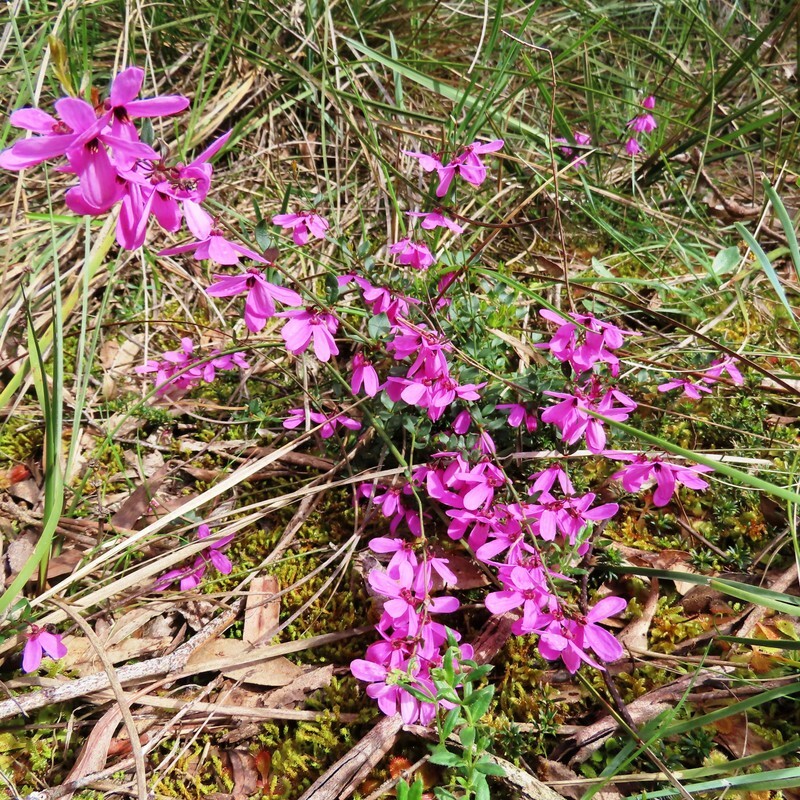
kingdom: Plantae
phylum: Tracheophyta
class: Magnoliopsida
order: Oxalidales
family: Elaeocarpaceae
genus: Tetratheca
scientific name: Tetratheca ciliata
